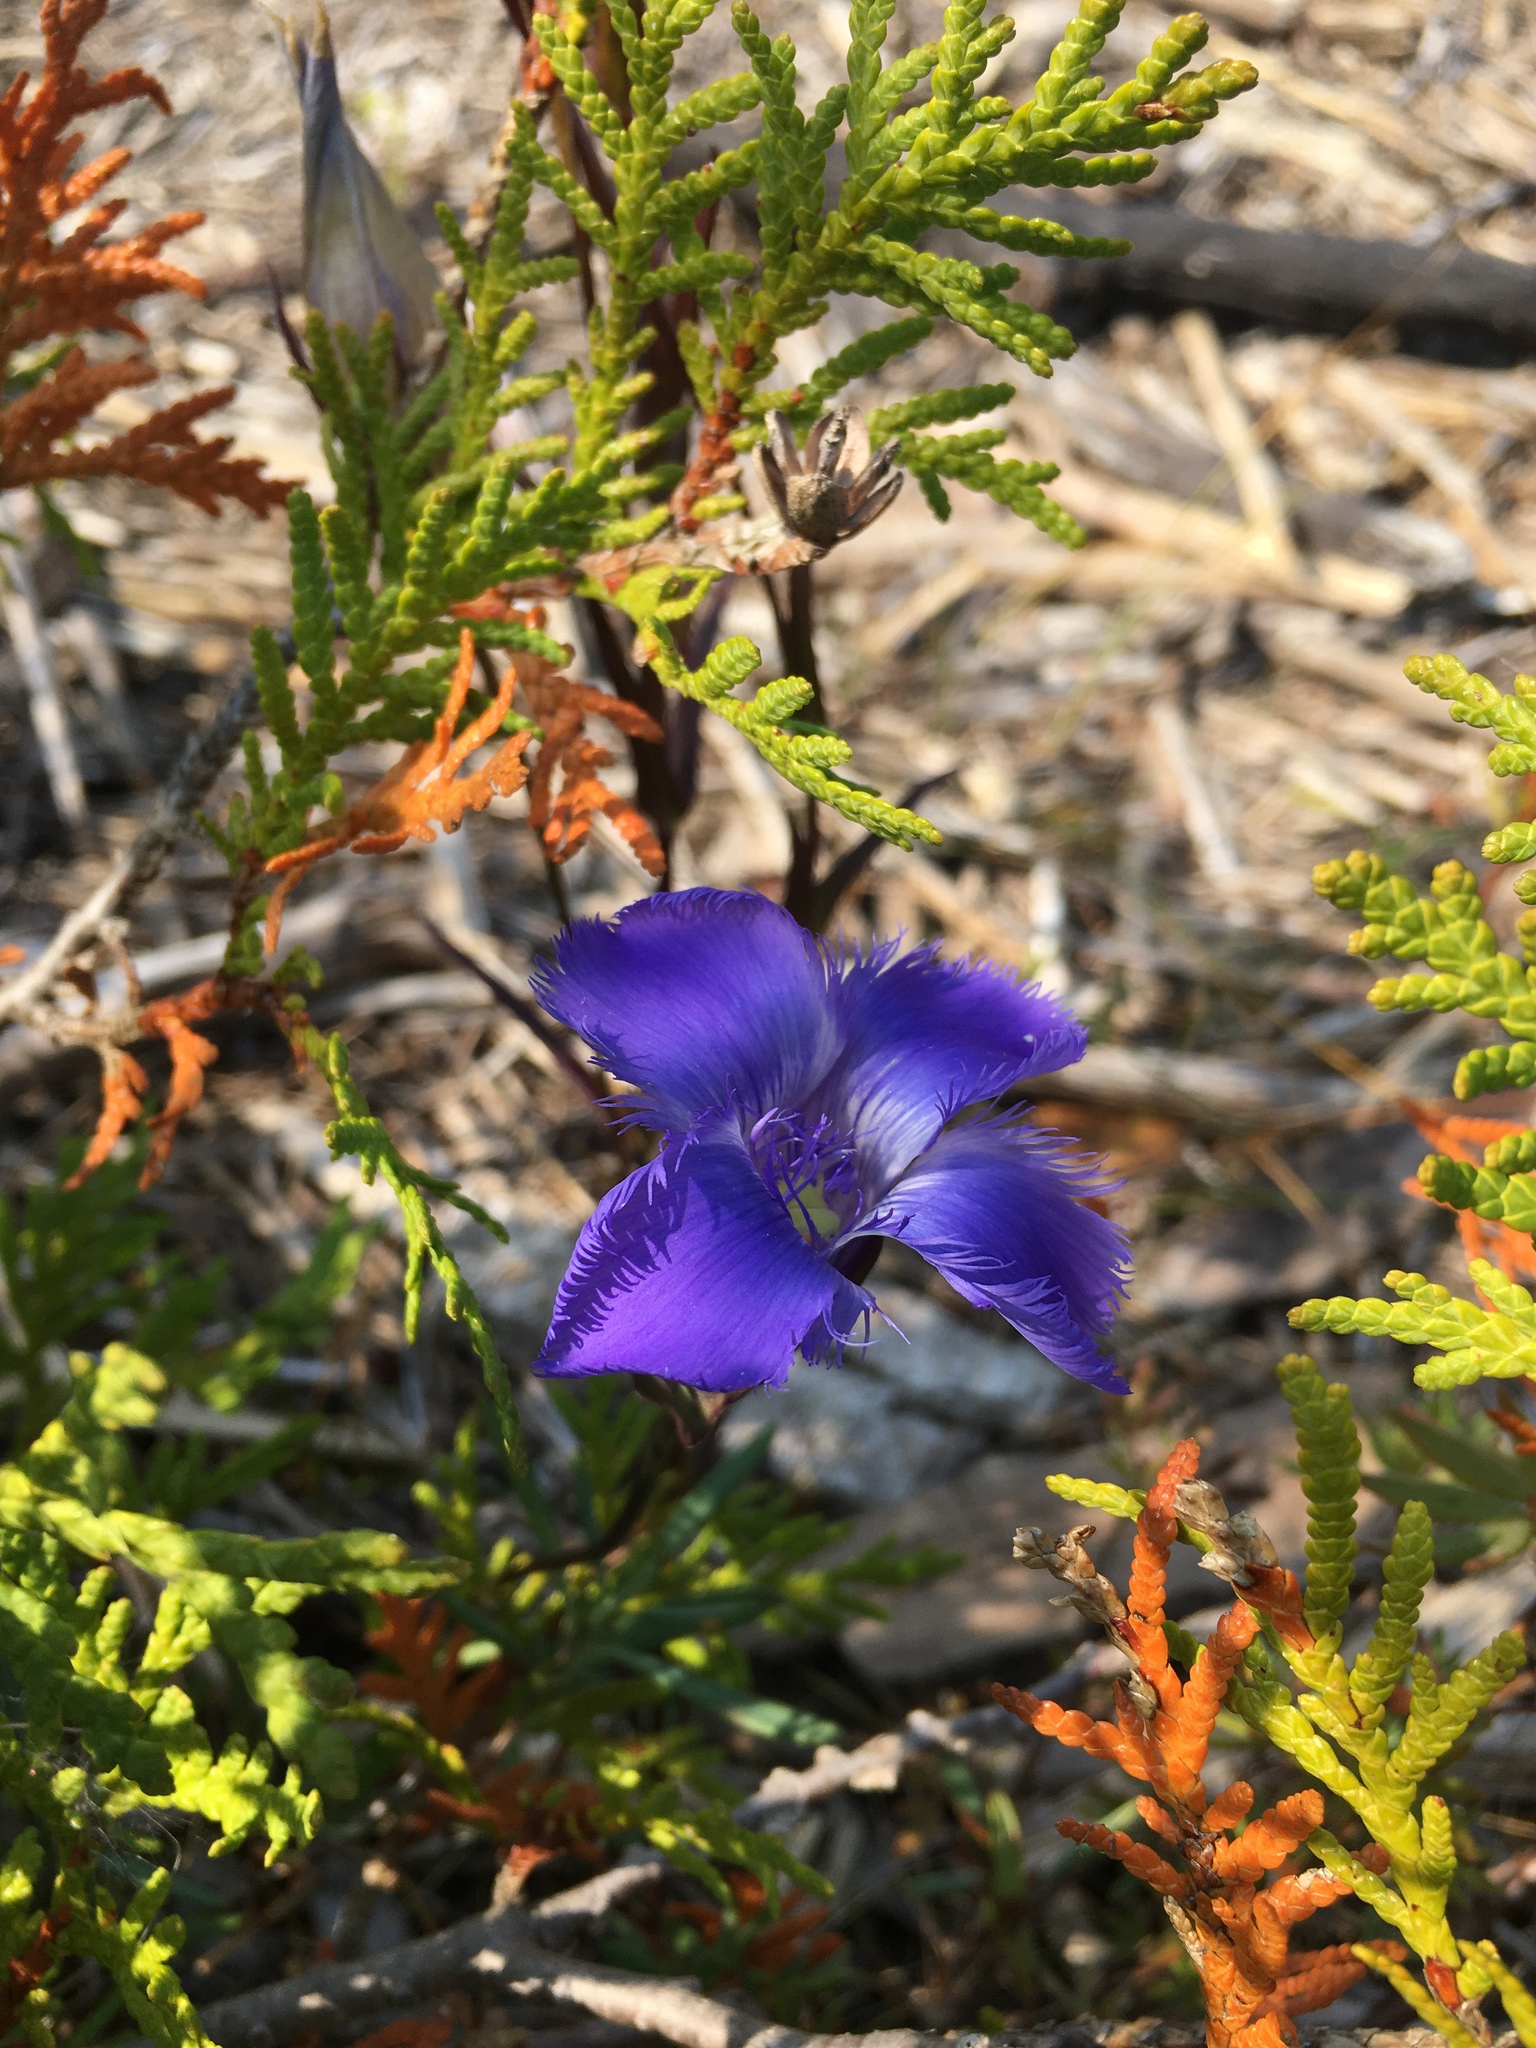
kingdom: Plantae
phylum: Tracheophyta
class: Magnoliopsida
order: Gentianales
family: Gentianaceae
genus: Gentianopsis
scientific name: Gentianopsis virgata
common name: Lesser fringed-gentian
